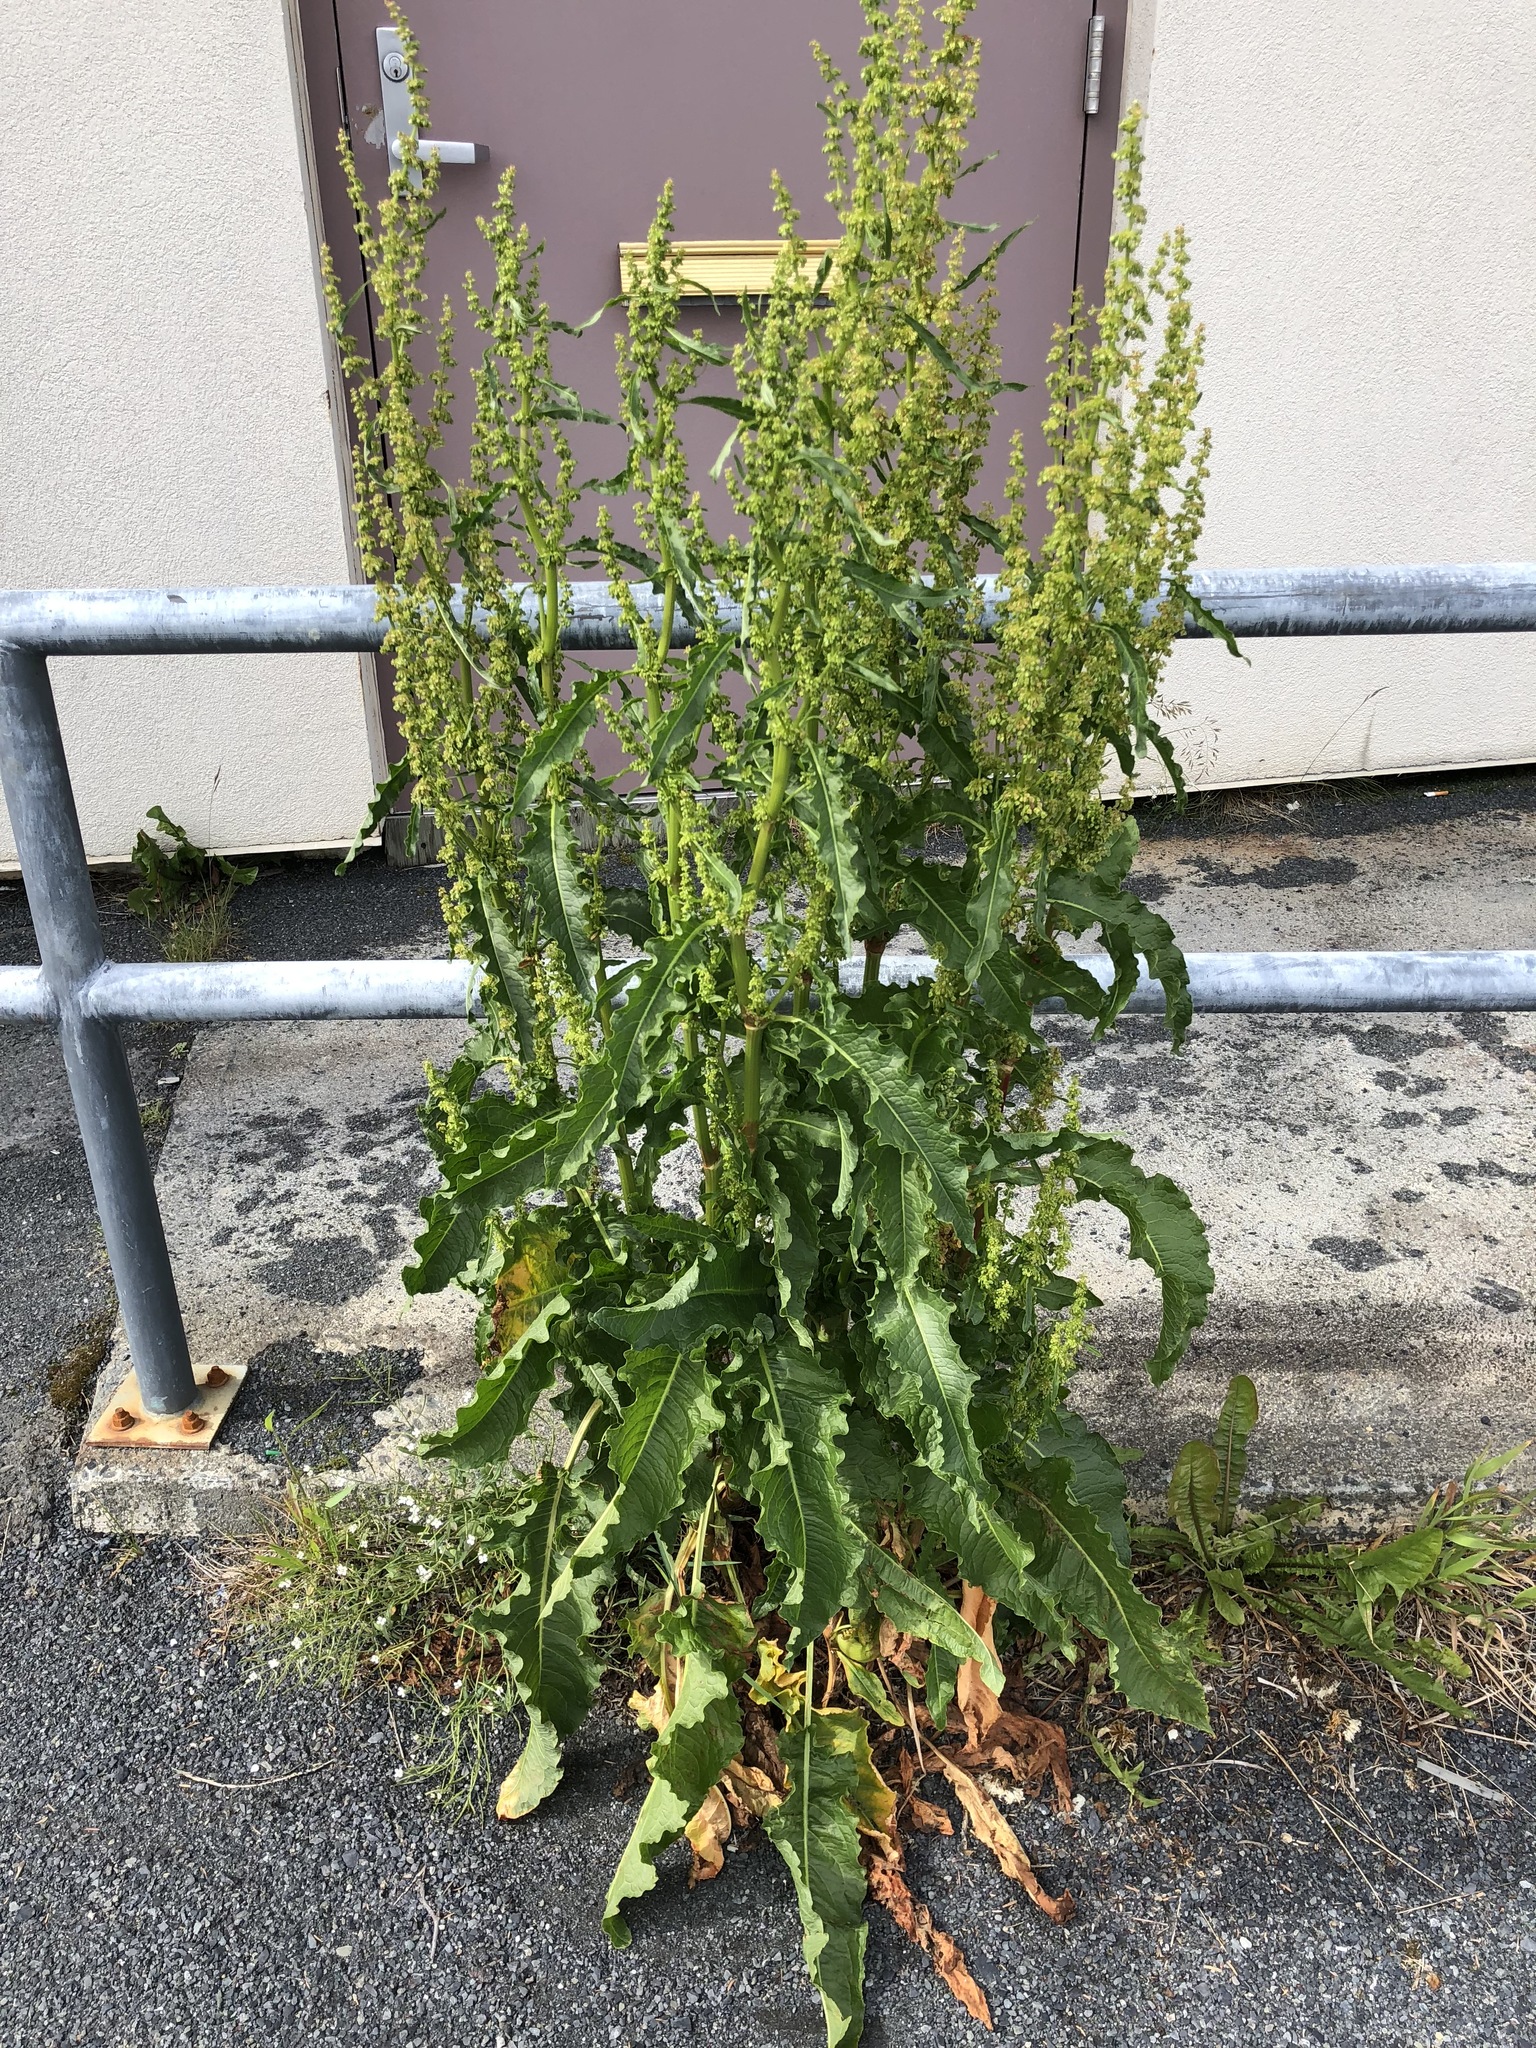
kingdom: Plantae
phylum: Tracheophyta
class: Magnoliopsida
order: Caryophyllales
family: Polygonaceae
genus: Rumex
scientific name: Rumex crispus
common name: Curled dock
